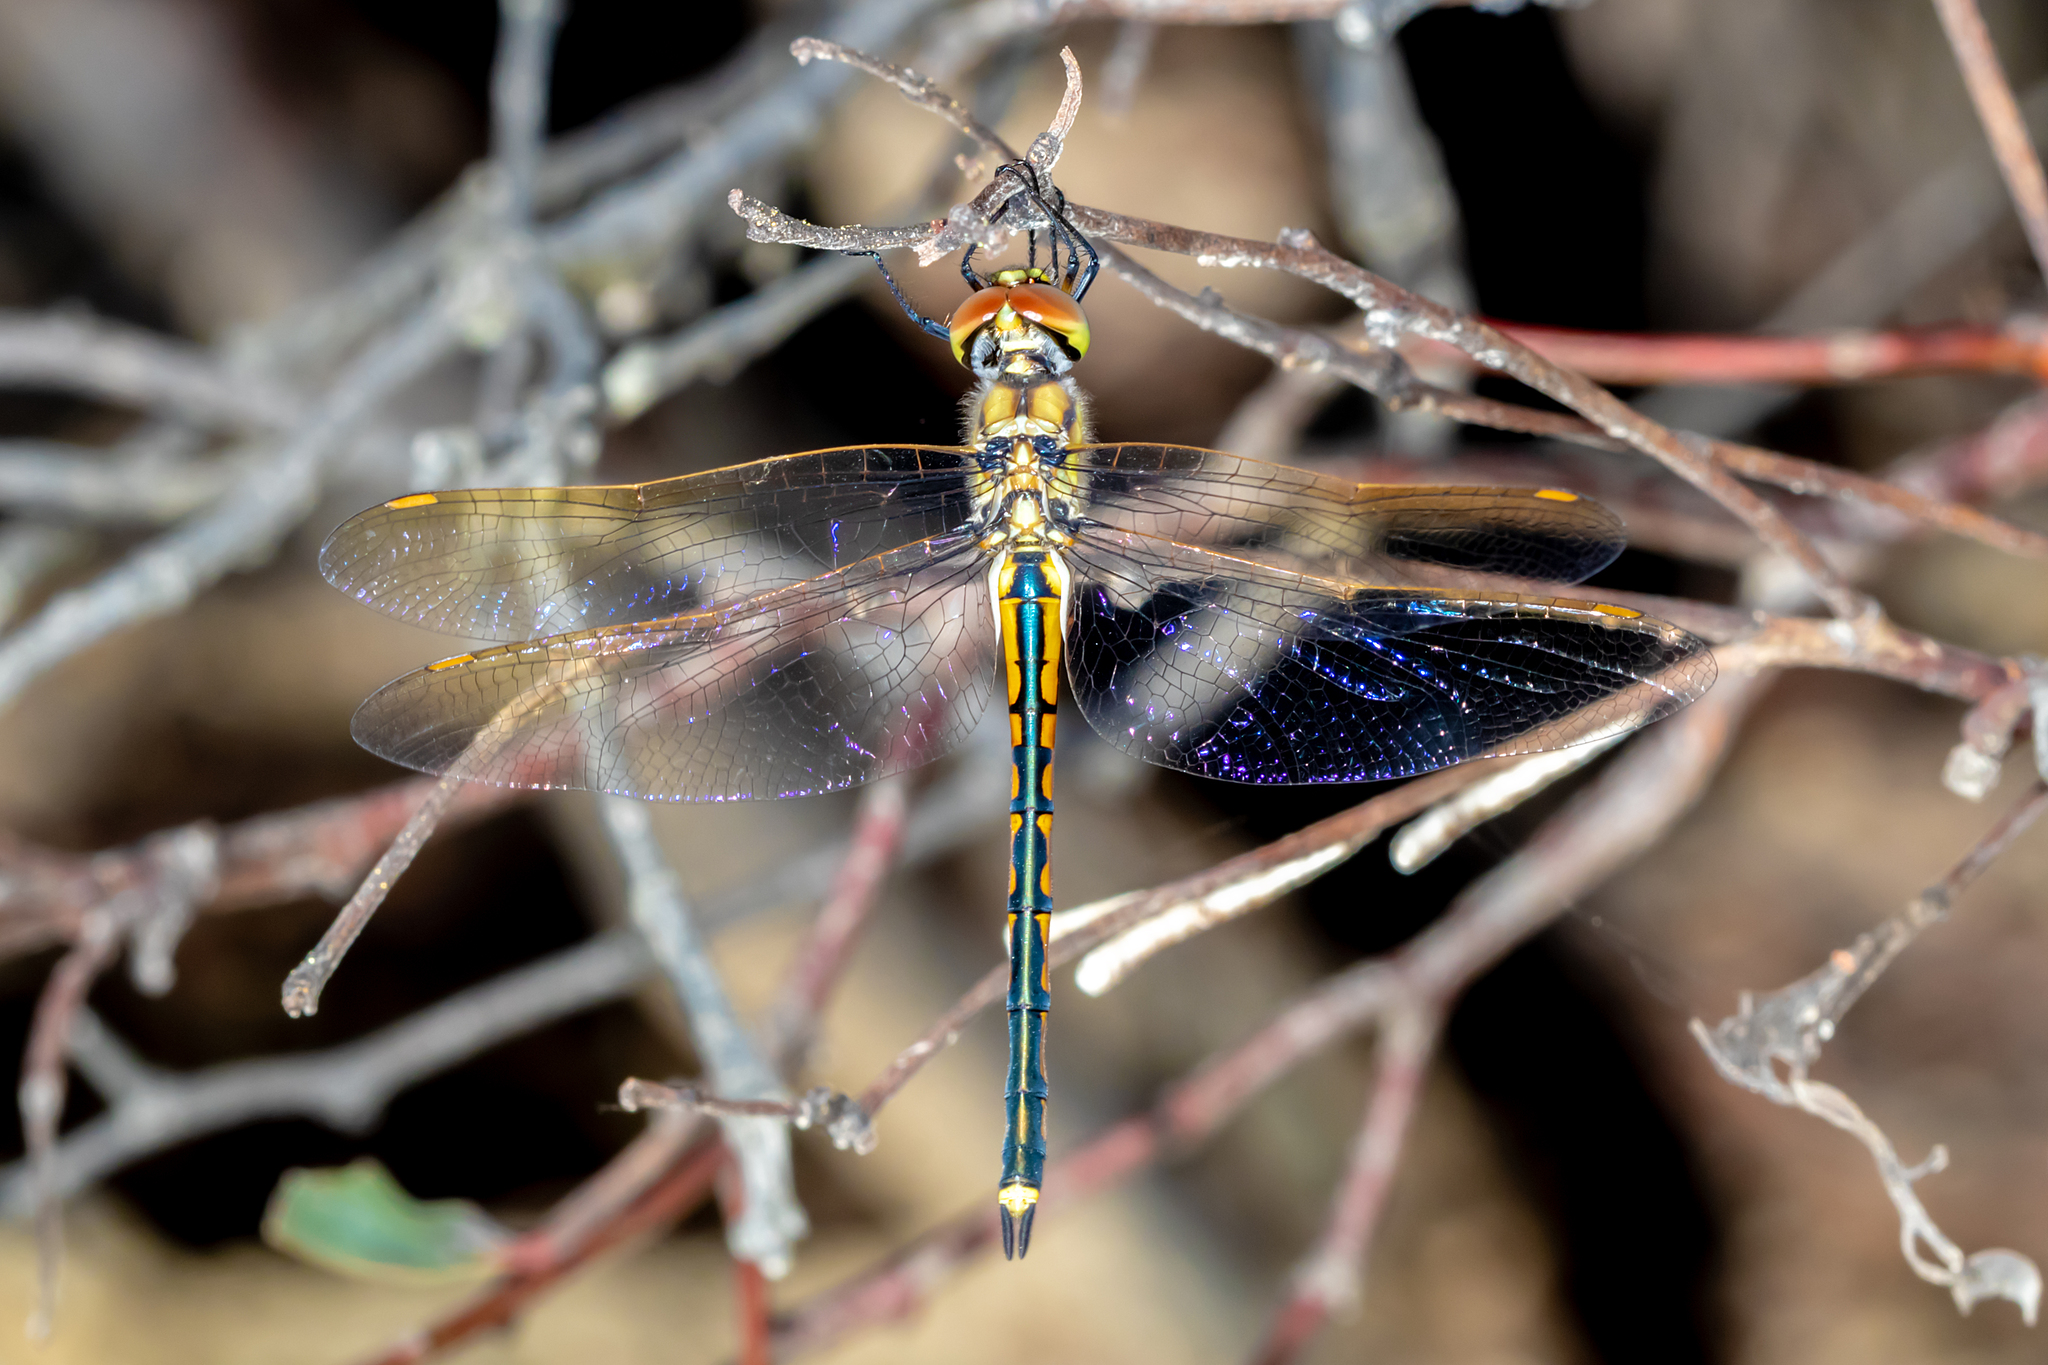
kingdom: Animalia
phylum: Arthropoda
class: Insecta
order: Odonata
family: Corduliidae
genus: Hemicordulia
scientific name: Hemicordulia tau
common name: Tau emerald
